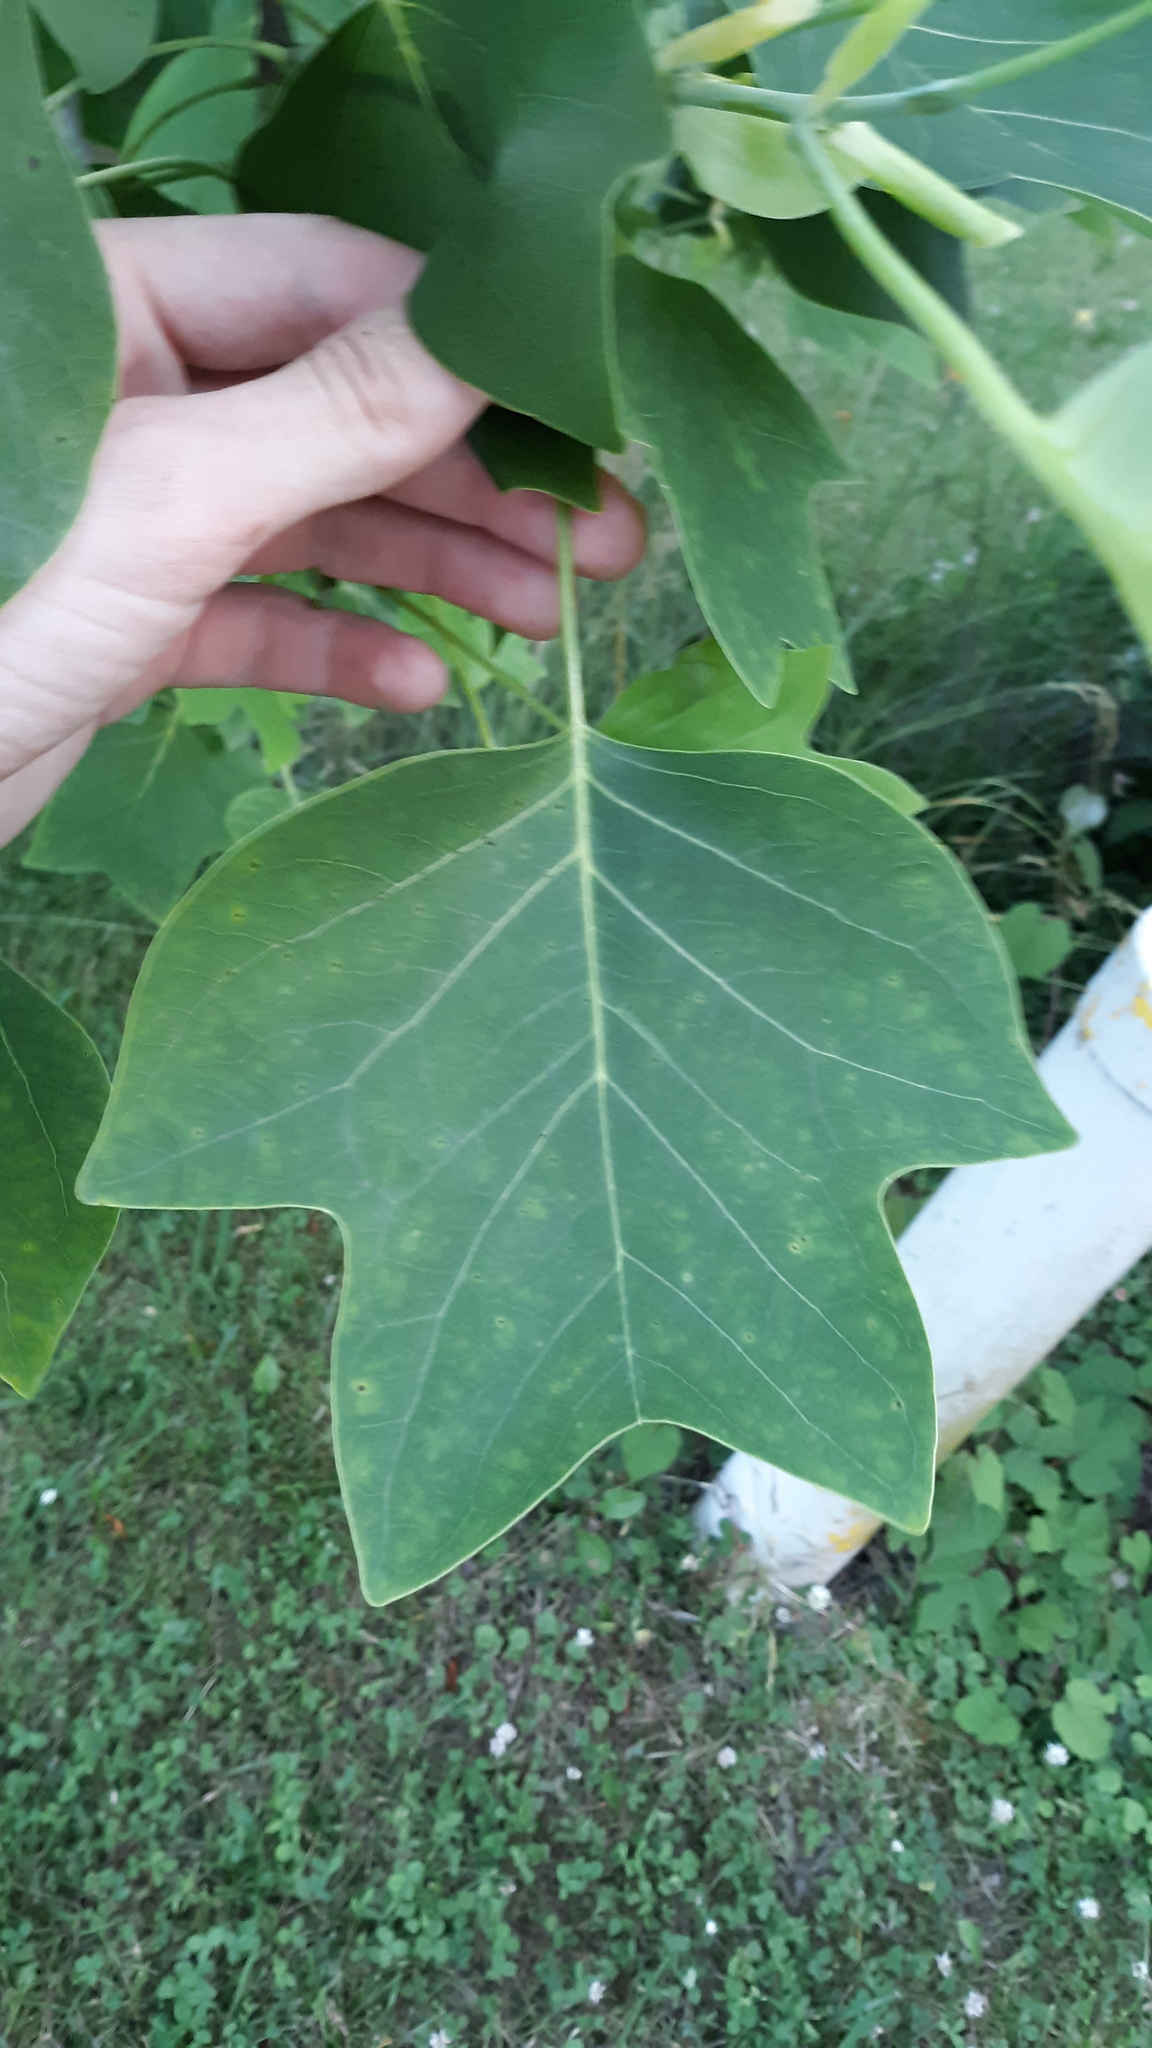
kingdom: Plantae
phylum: Tracheophyta
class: Magnoliopsida
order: Magnoliales
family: Magnoliaceae
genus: Liriodendron
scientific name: Liriodendron tulipifera
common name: Tulip tree
